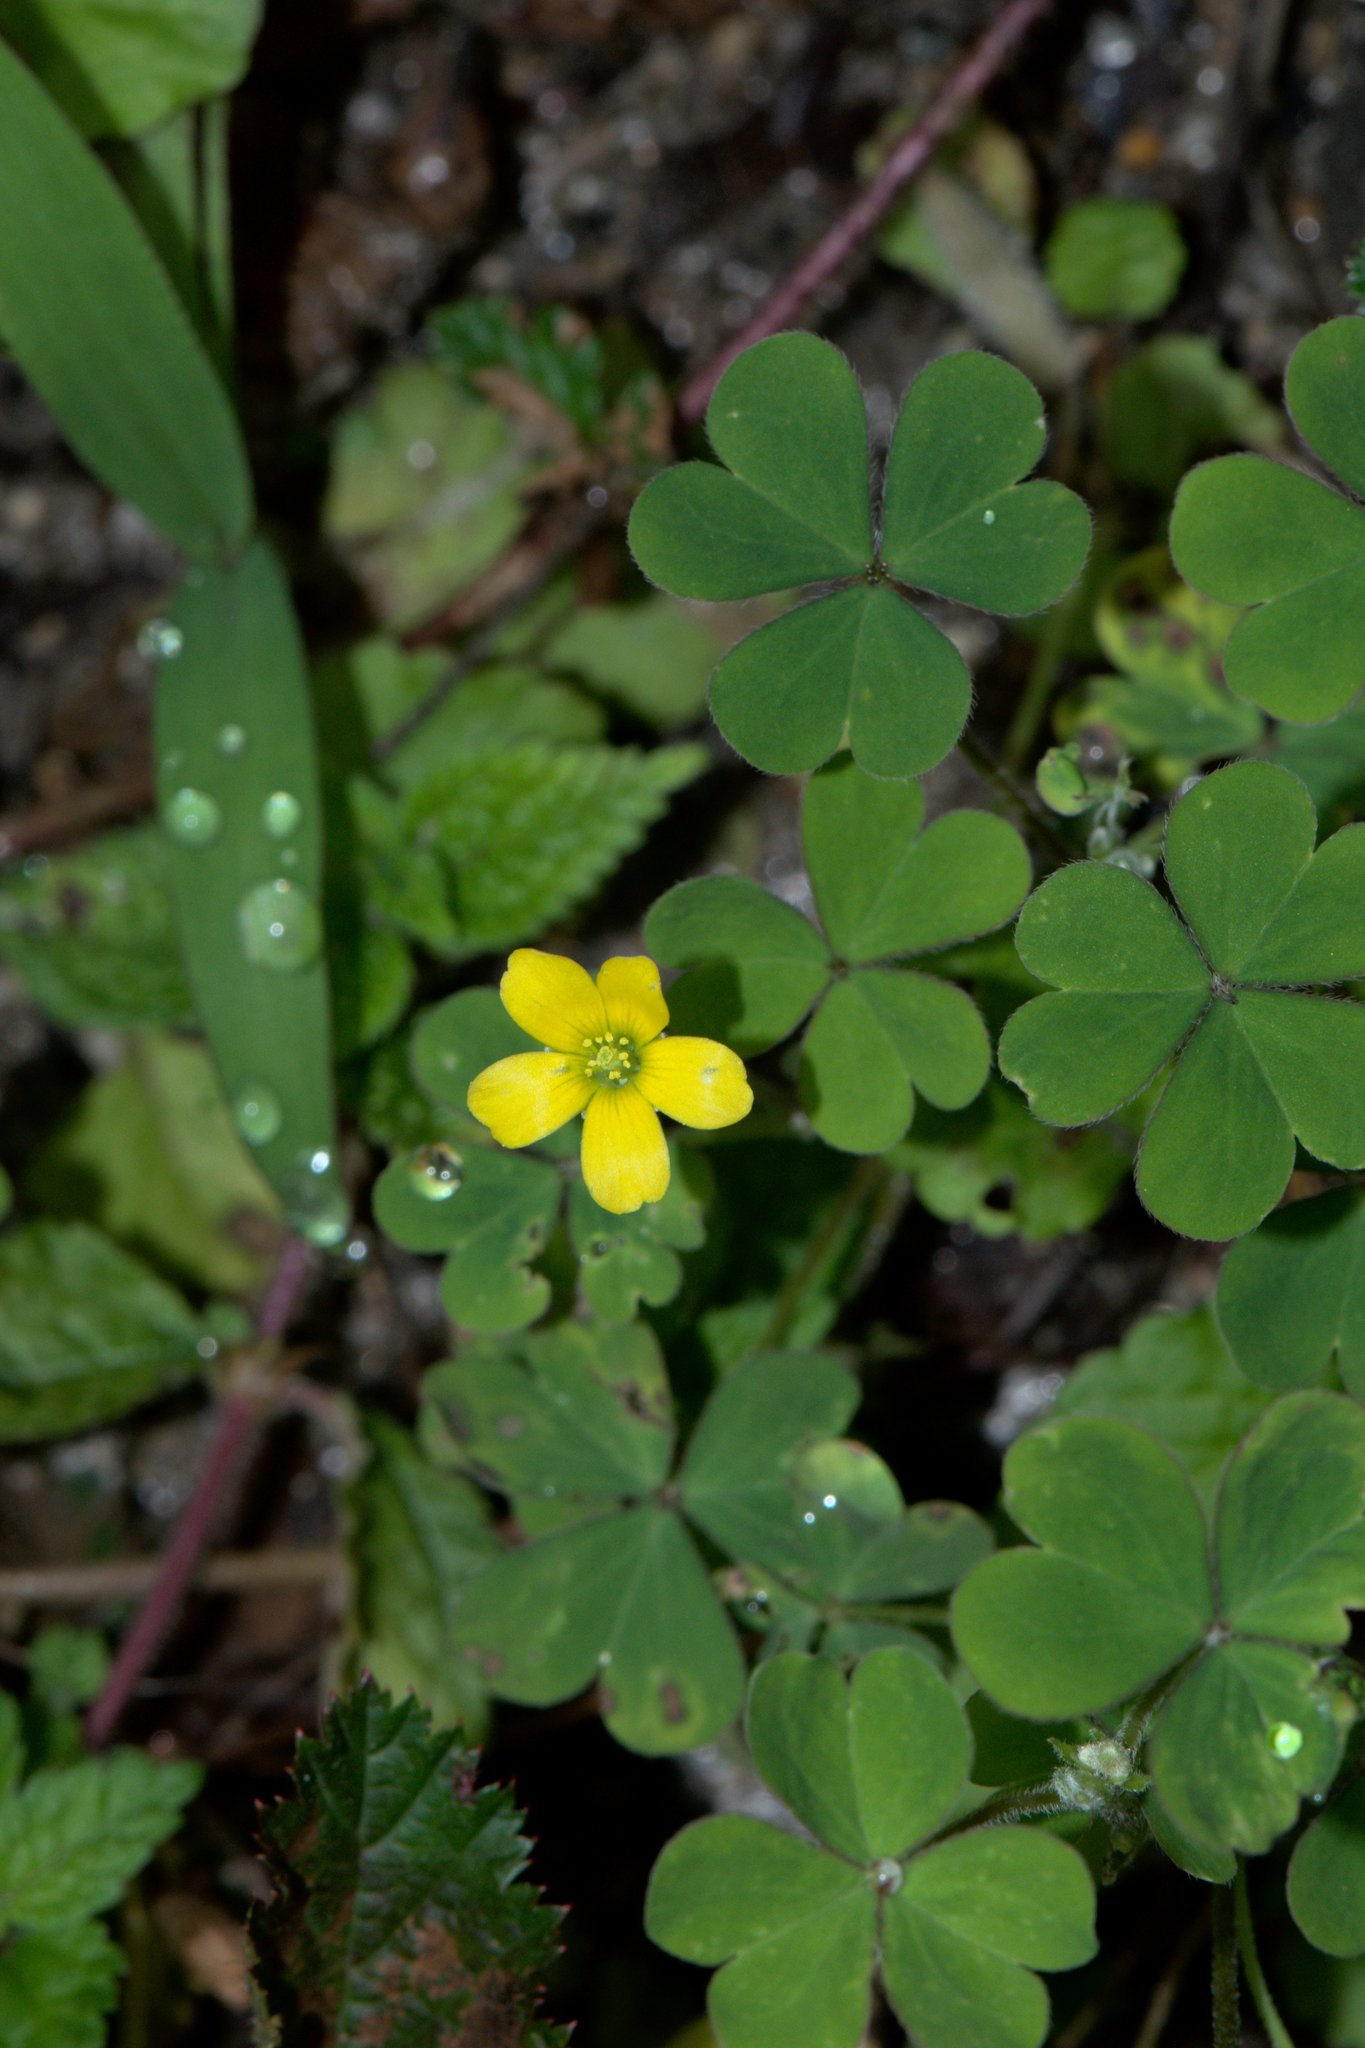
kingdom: Plantae
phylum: Tracheophyta
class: Magnoliopsida
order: Oxalidales
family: Oxalidaceae
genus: Oxalis
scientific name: Oxalis corniculata
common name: Procumbent yellow-sorrel
